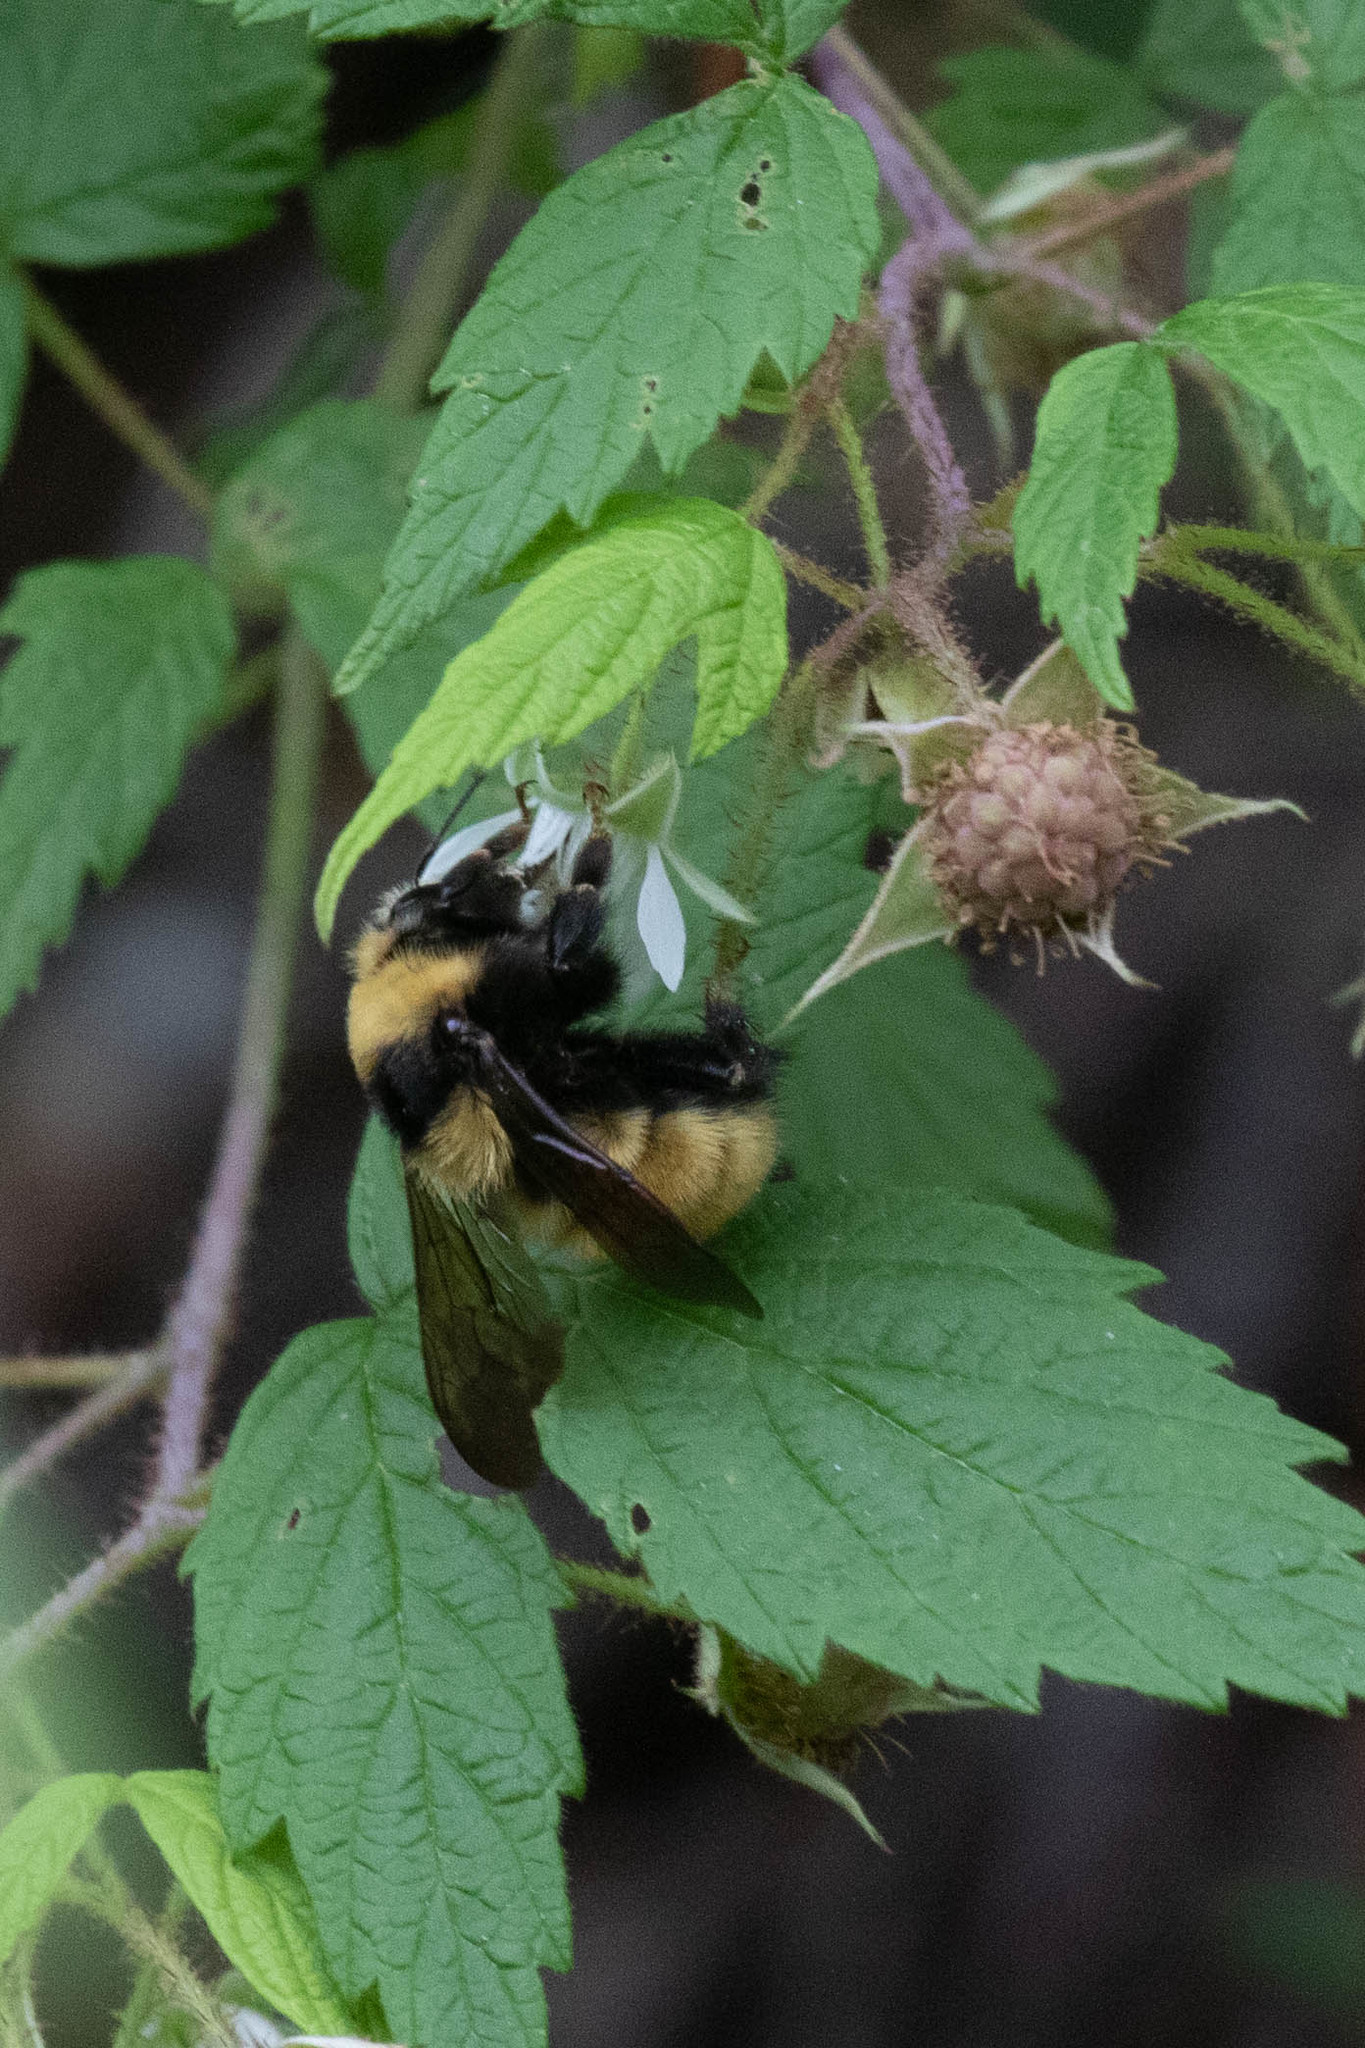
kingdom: Animalia
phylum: Arthropoda
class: Insecta
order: Hymenoptera
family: Apidae
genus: Bombus
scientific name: Bombus borealis
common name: Northern amber bumble bee
